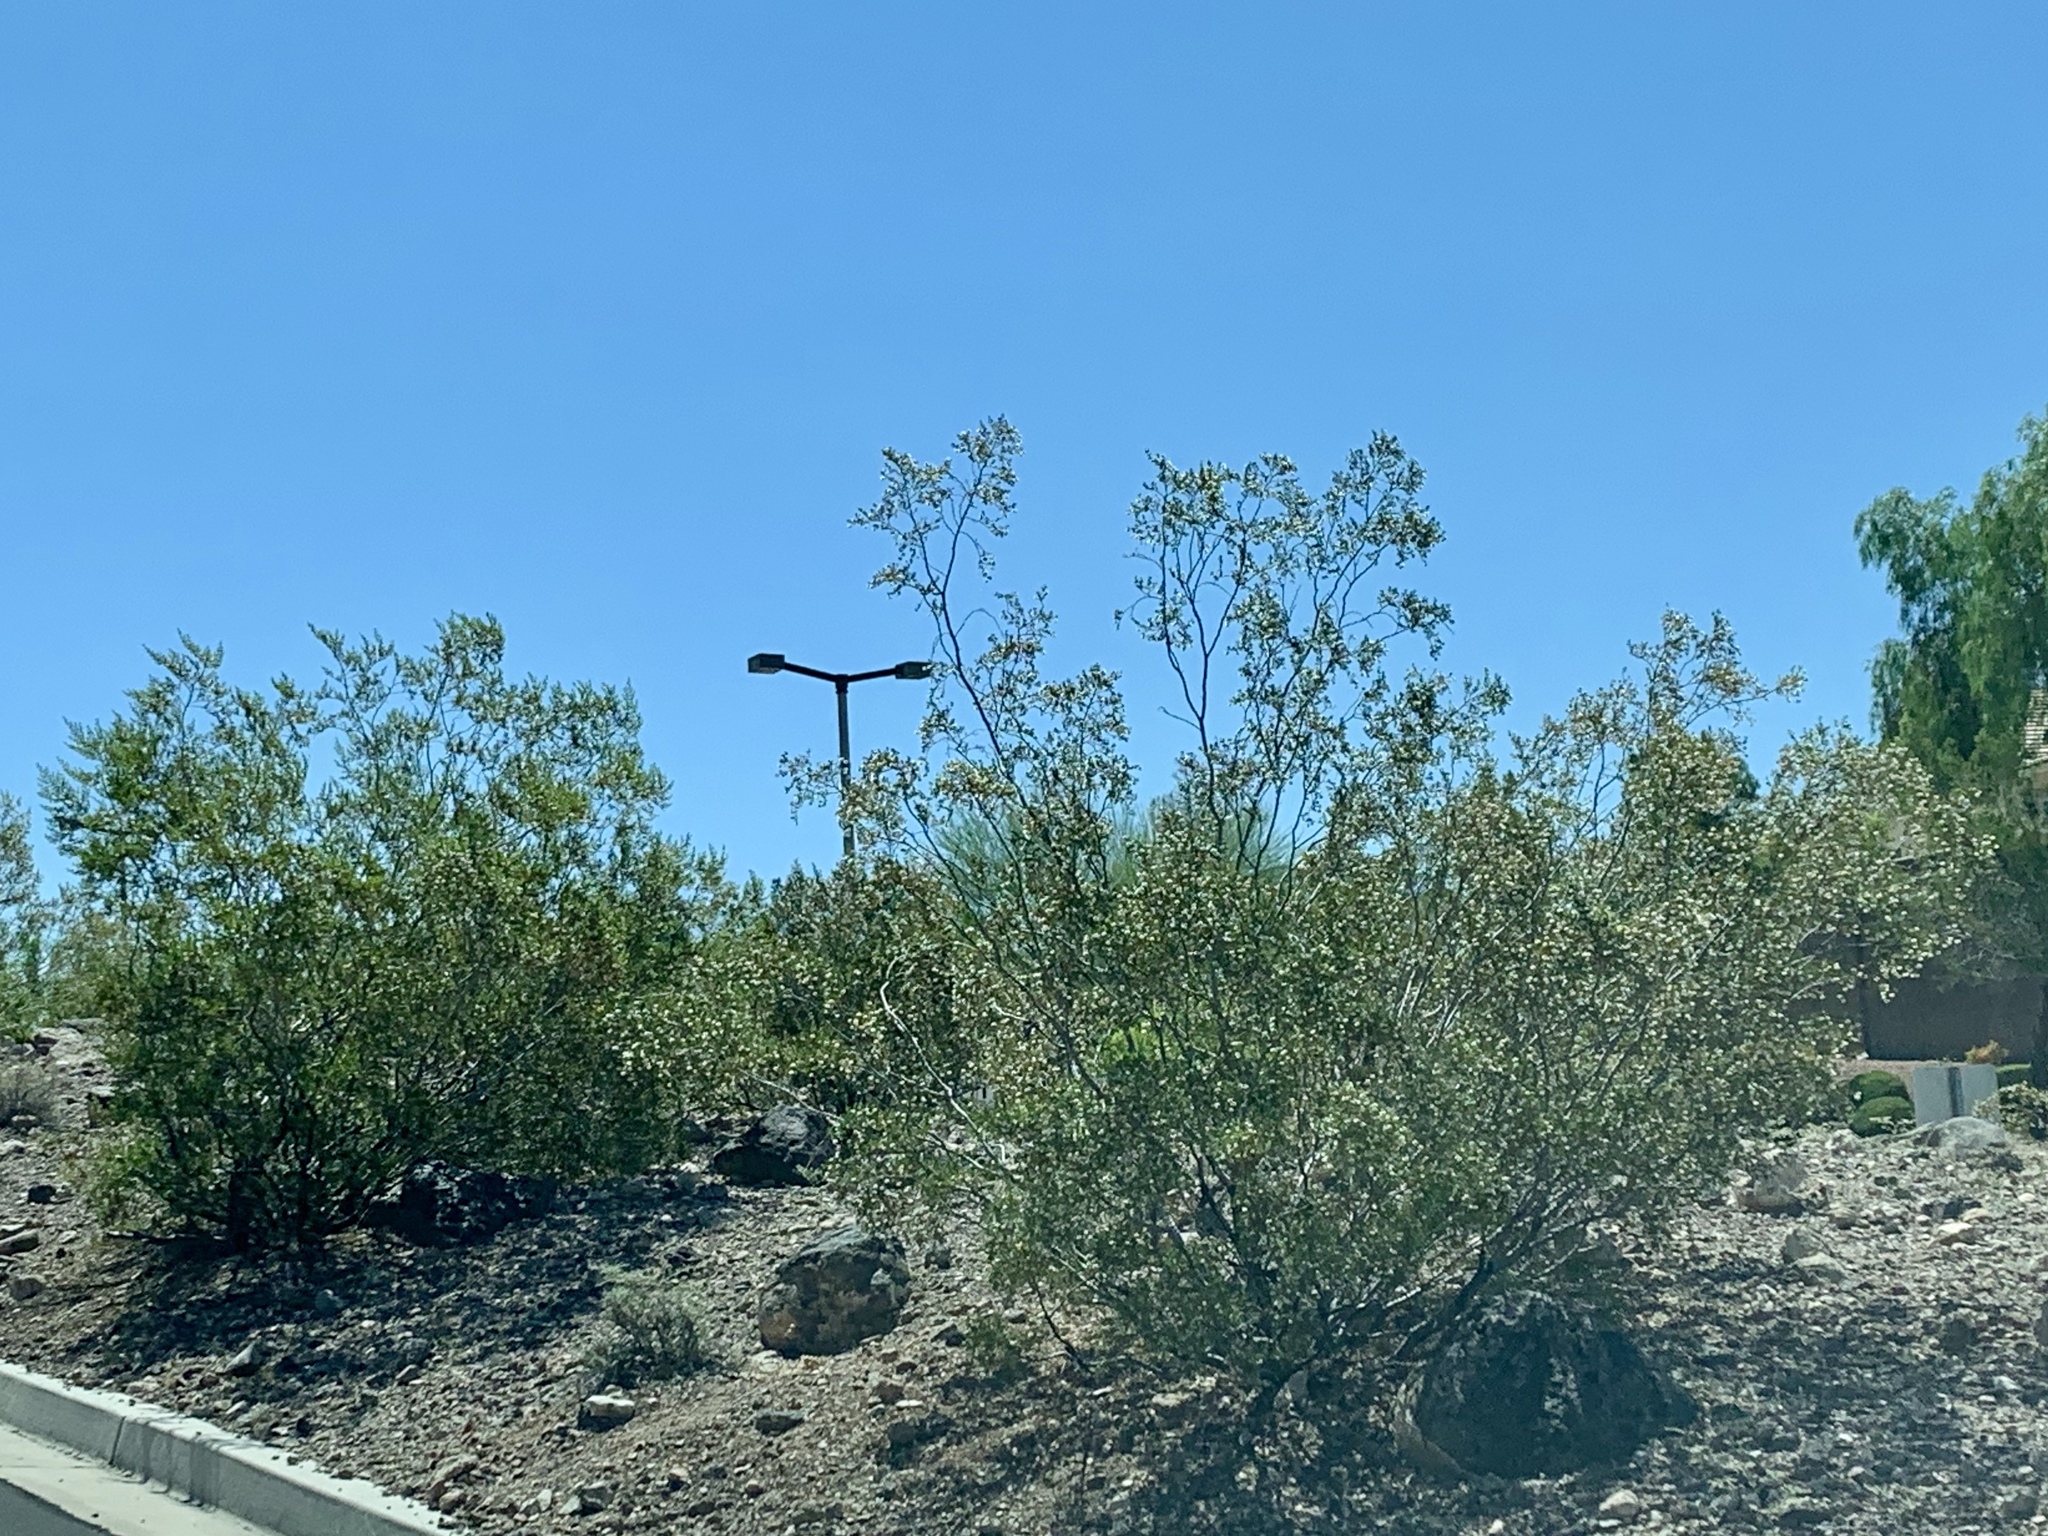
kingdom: Plantae
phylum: Tracheophyta
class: Magnoliopsida
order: Zygophyllales
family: Zygophyllaceae
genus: Larrea
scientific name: Larrea tridentata
